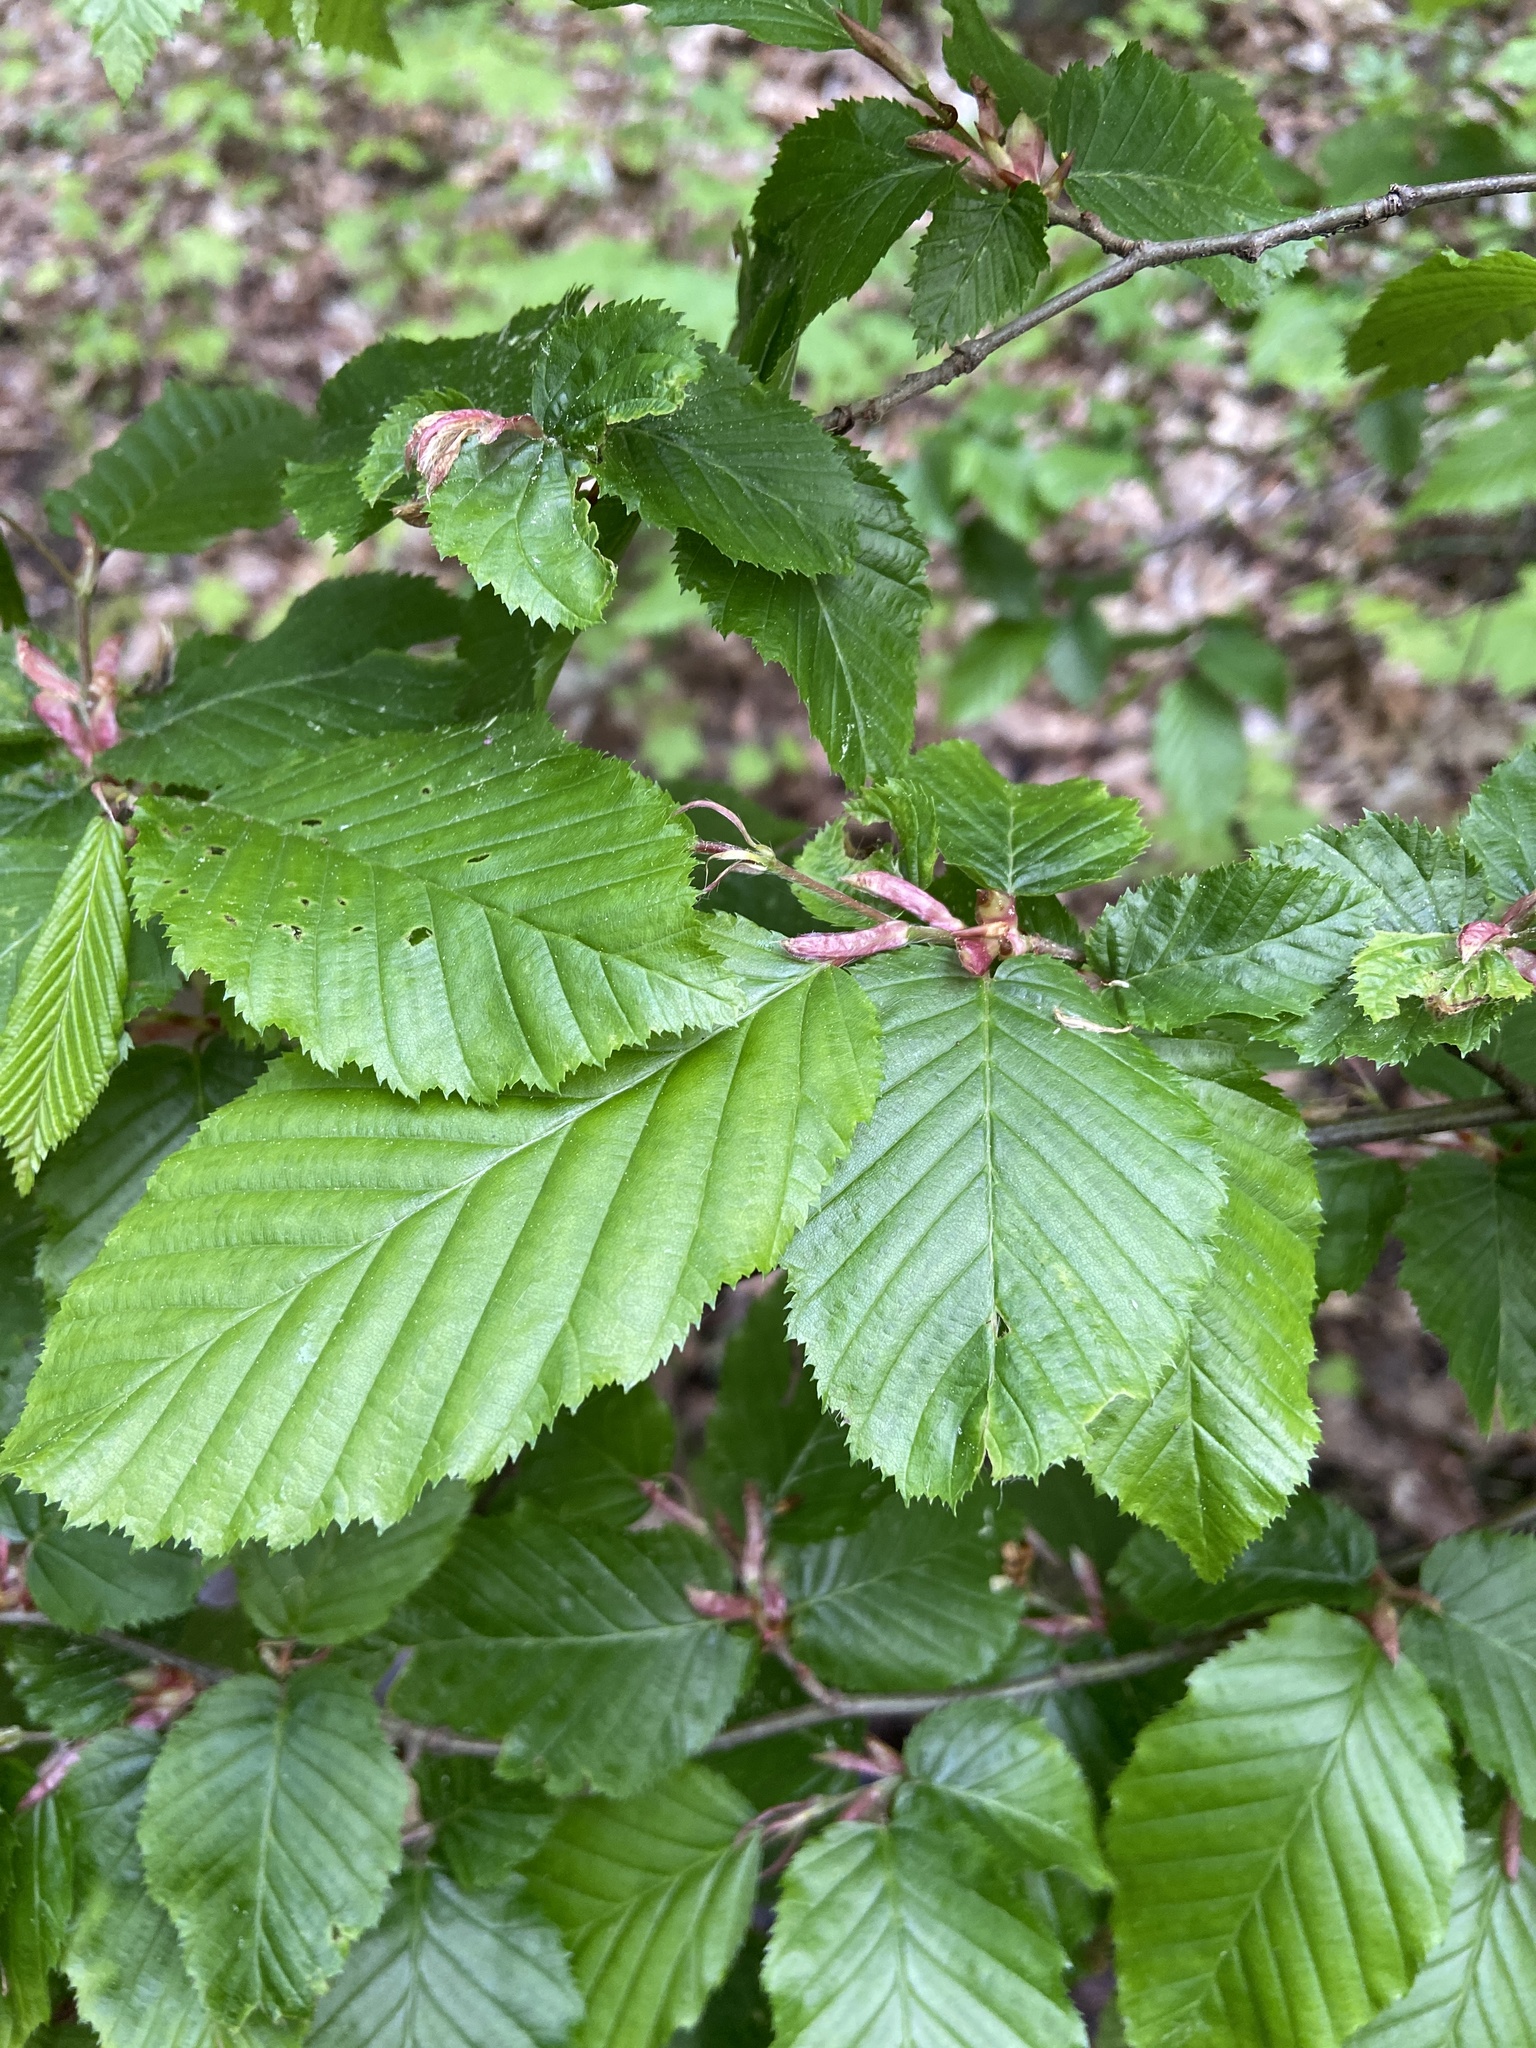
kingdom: Plantae
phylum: Tracheophyta
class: Magnoliopsida
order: Fagales
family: Betulaceae
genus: Carpinus
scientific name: Carpinus betulus
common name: Hornbeam
